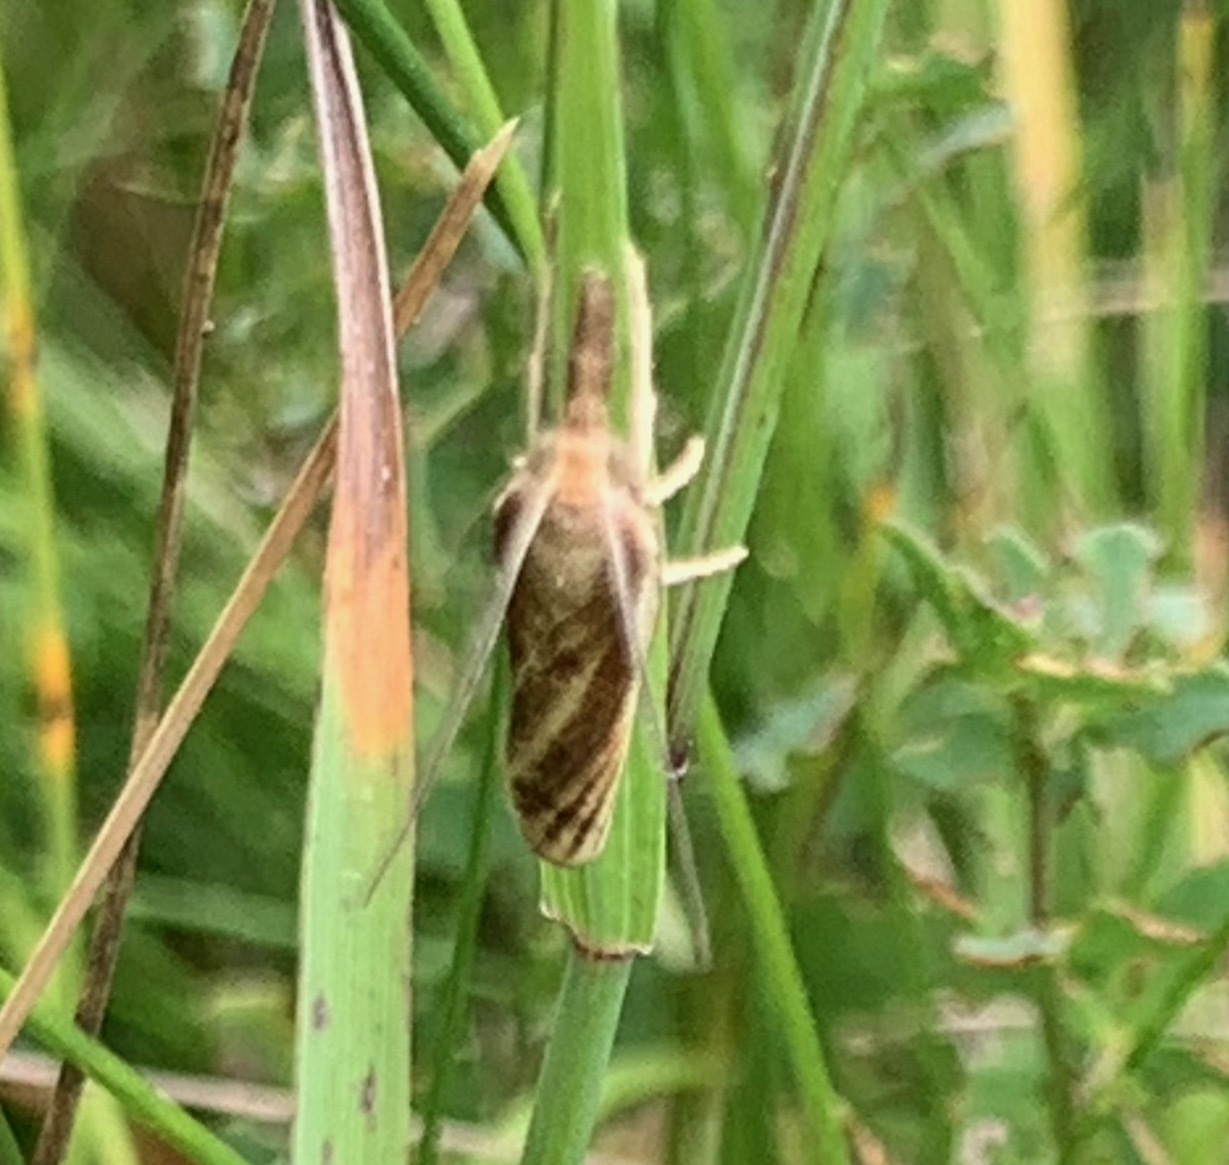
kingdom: Animalia
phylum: Arthropoda
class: Insecta
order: Lepidoptera
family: Crambidae
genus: Agriphila
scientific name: Agriphila tristellus
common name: Common grass-veneer
